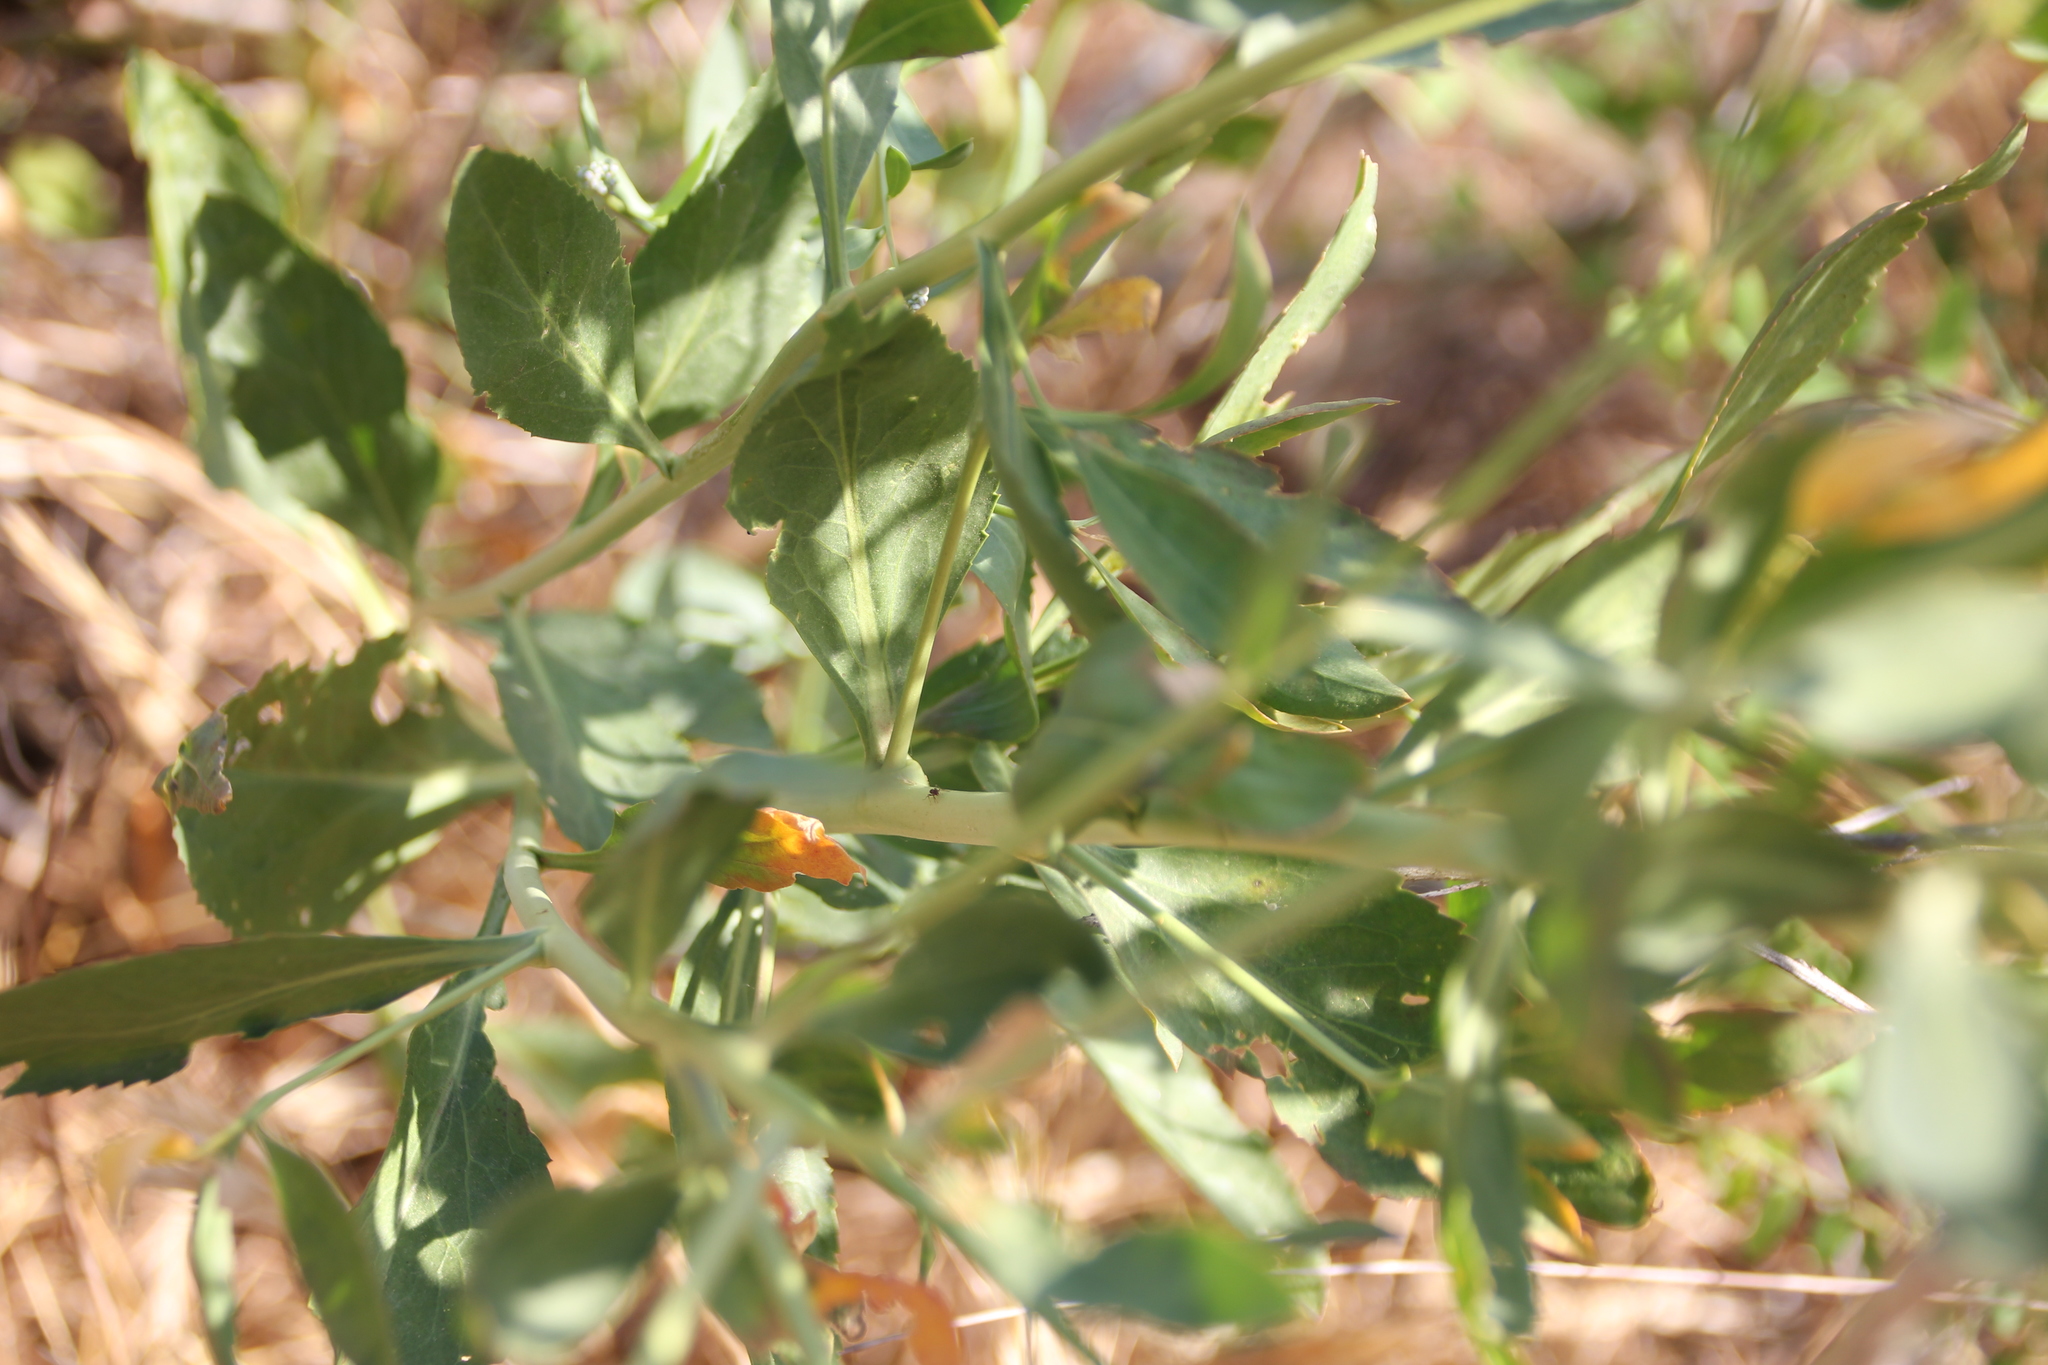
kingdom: Plantae
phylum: Tracheophyta
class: Magnoliopsida
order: Brassicales
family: Brassicaceae
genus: Lepidium
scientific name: Lepidium latifolium
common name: Dittander
